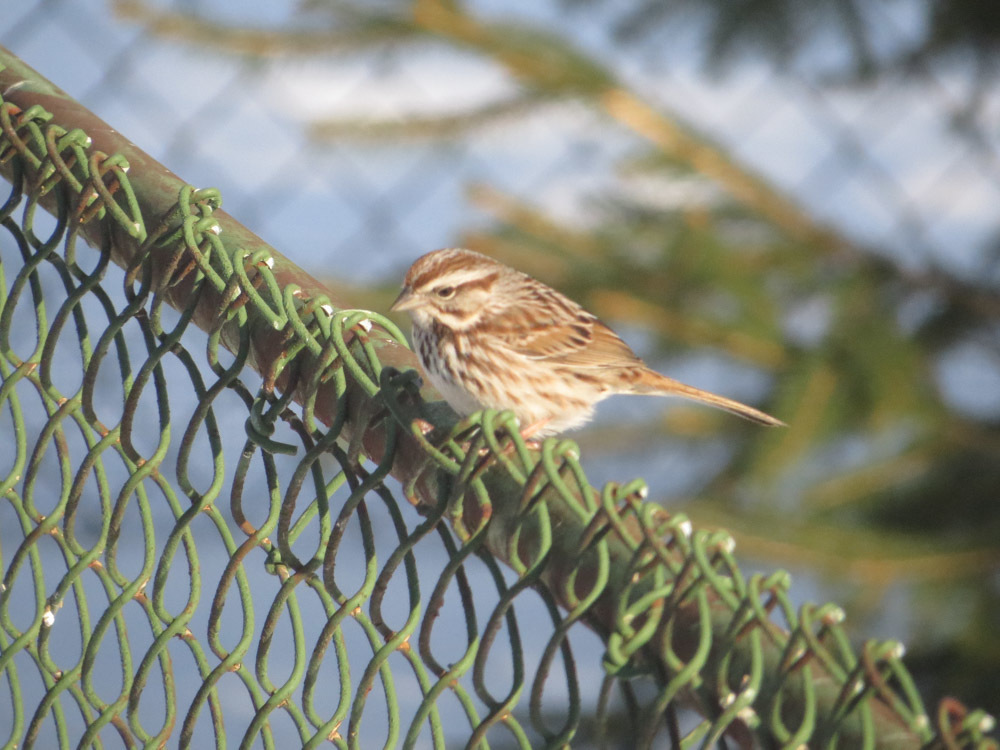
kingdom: Animalia
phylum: Chordata
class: Aves
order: Passeriformes
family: Passerellidae
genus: Melospiza
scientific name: Melospiza melodia
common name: Song sparrow
